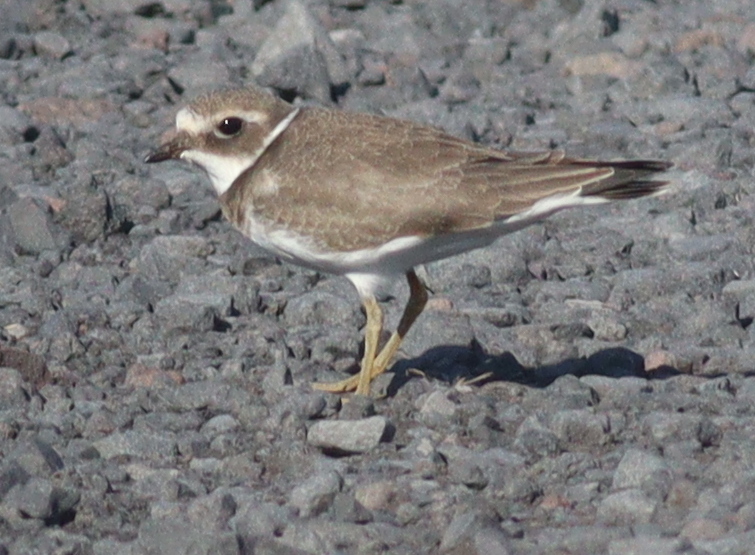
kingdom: Animalia
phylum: Chordata
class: Aves
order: Charadriiformes
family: Charadriidae
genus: Charadrius
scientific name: Charadrius hiaticula
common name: Common ringed plover
